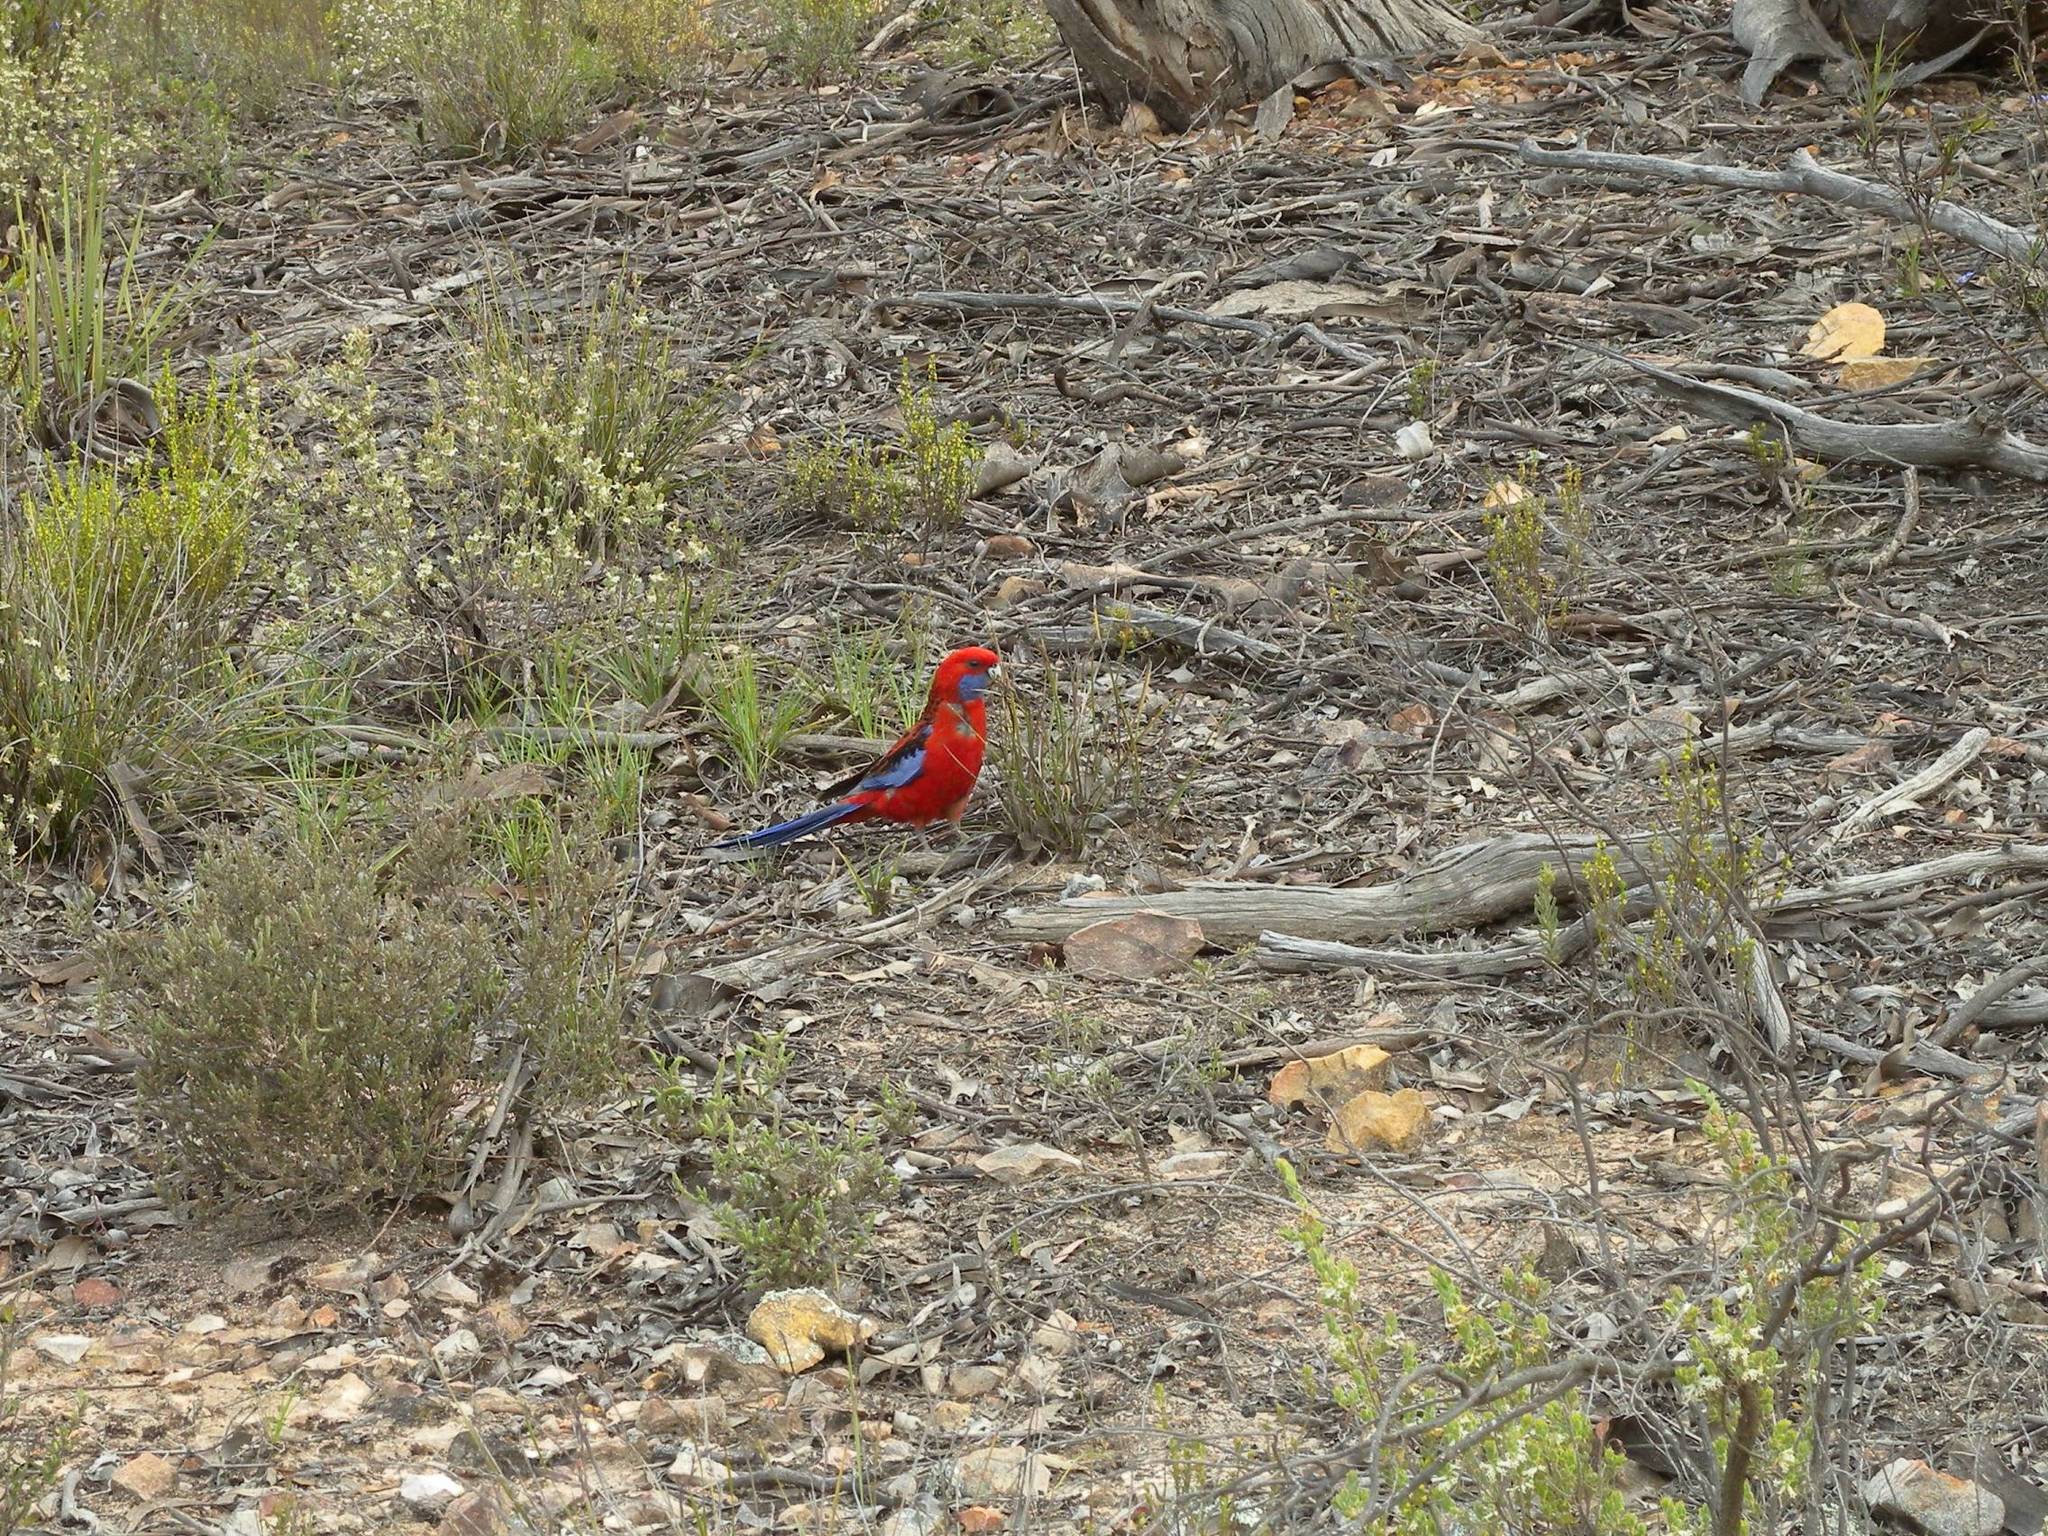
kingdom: Animalia
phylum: Chordata
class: Aves
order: Psittaciformes
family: Psittacidae
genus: Platycercus
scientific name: Platycercus elegans
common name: Crimson rosella
